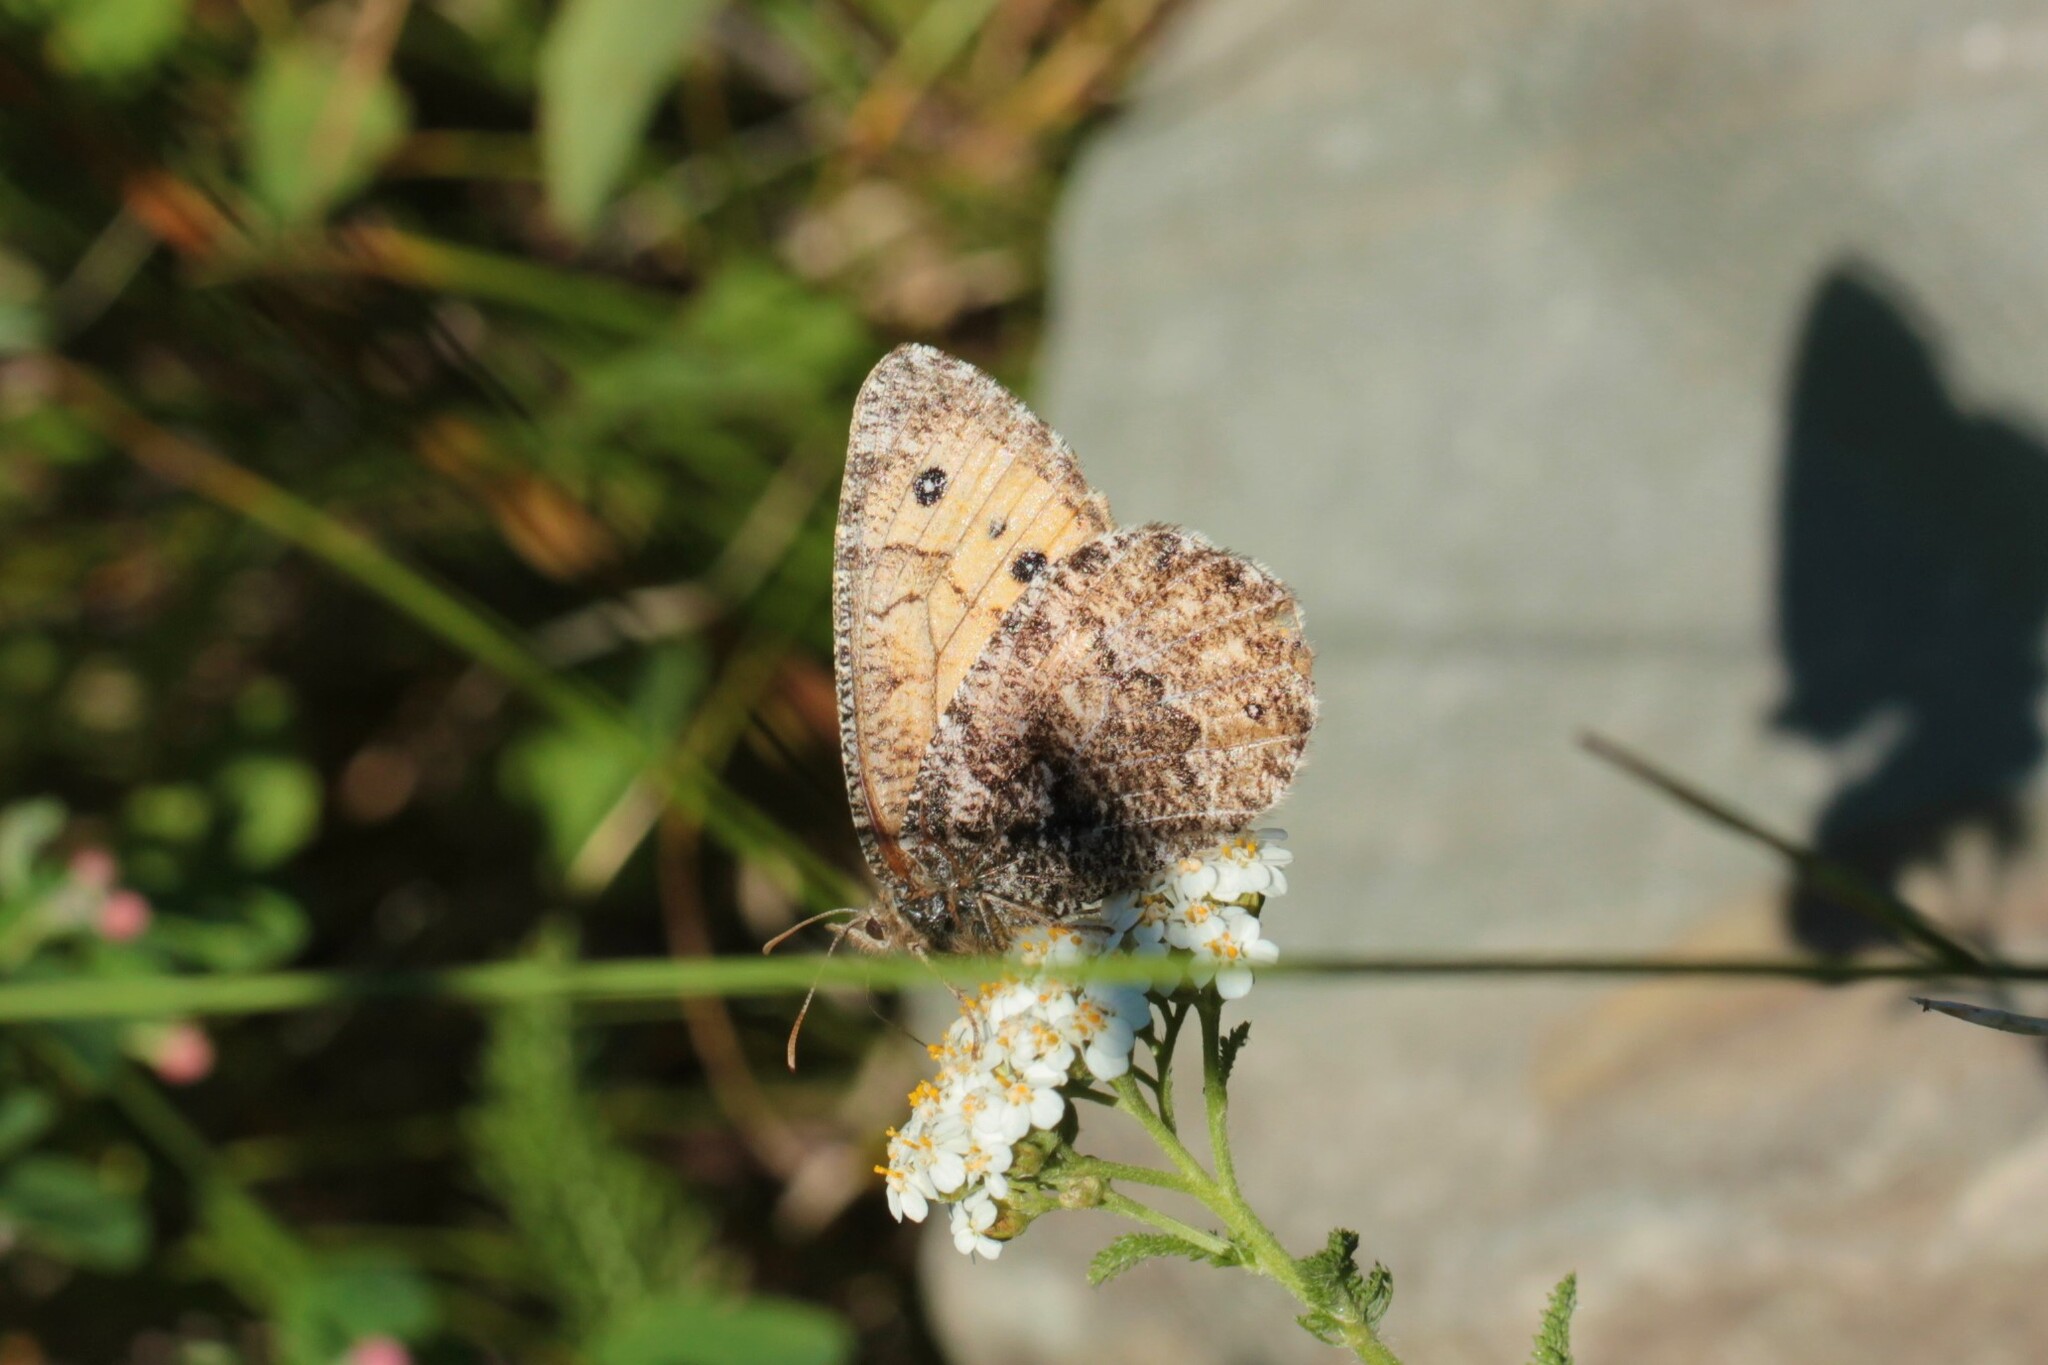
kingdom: Animalia
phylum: Arthropoda
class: Insecta
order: Lepidoptera
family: Nymphalidae
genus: Oeneis
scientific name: Oeneis chryxus
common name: Chryxus arctic
